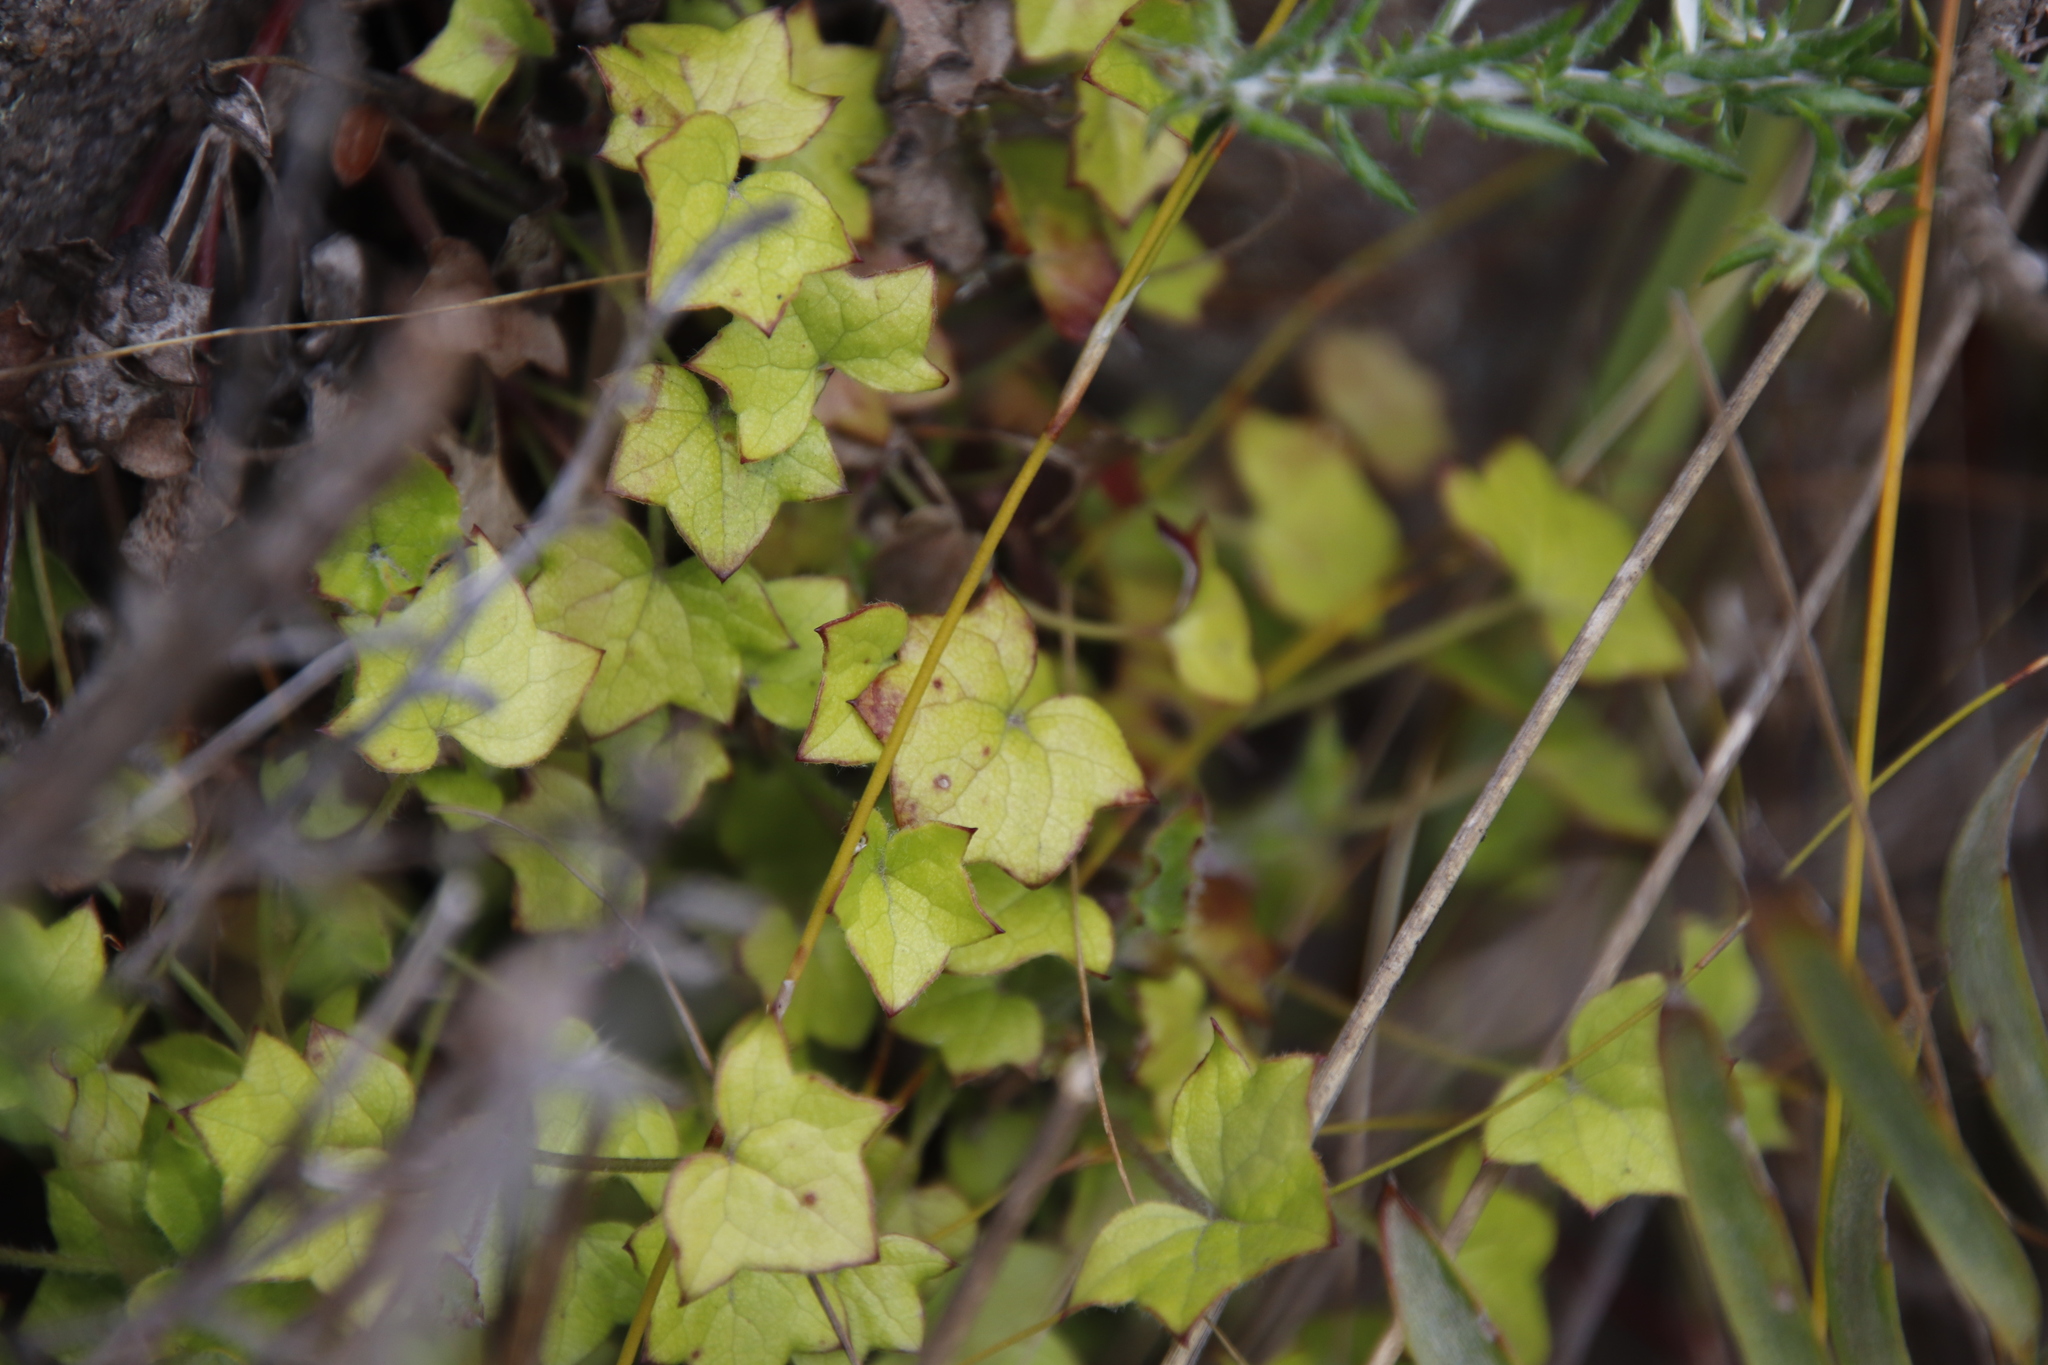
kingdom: Plantae
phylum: Tracheophyta
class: Magnoliopsida
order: Apiales
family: Apiaceae
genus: Centella
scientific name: Centella macroda
